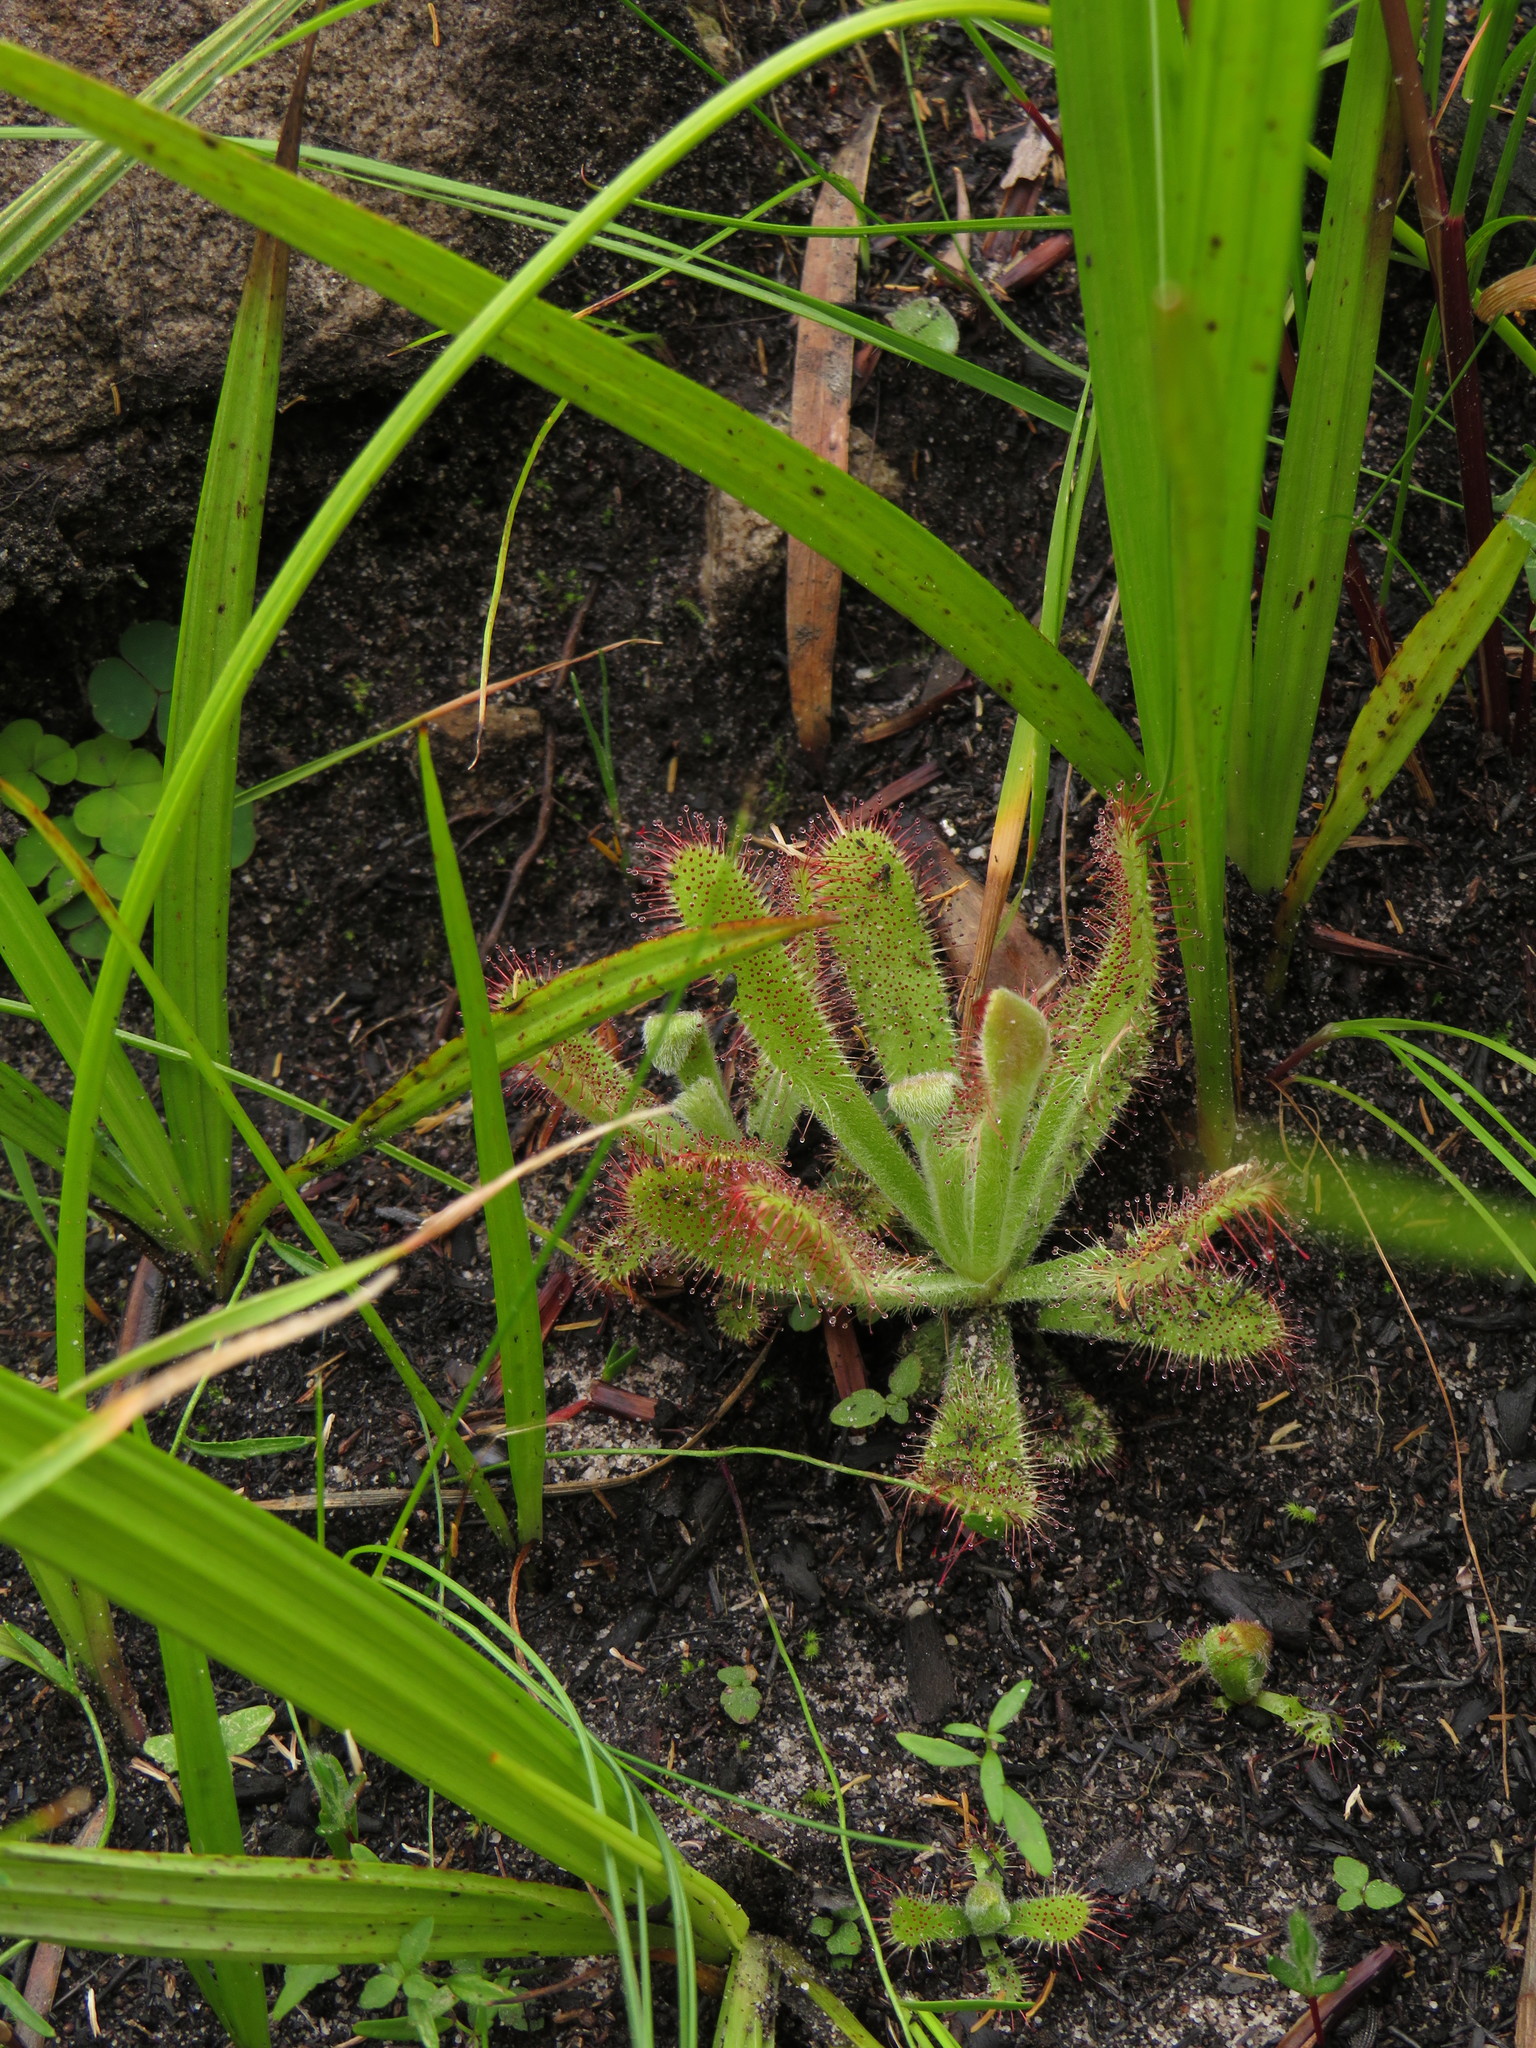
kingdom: Plantae
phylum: Tracheophyta
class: Magnoliopsida
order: Caryophyllales
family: Droseraceae
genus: Drosera
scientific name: Drosera ericgreenii
